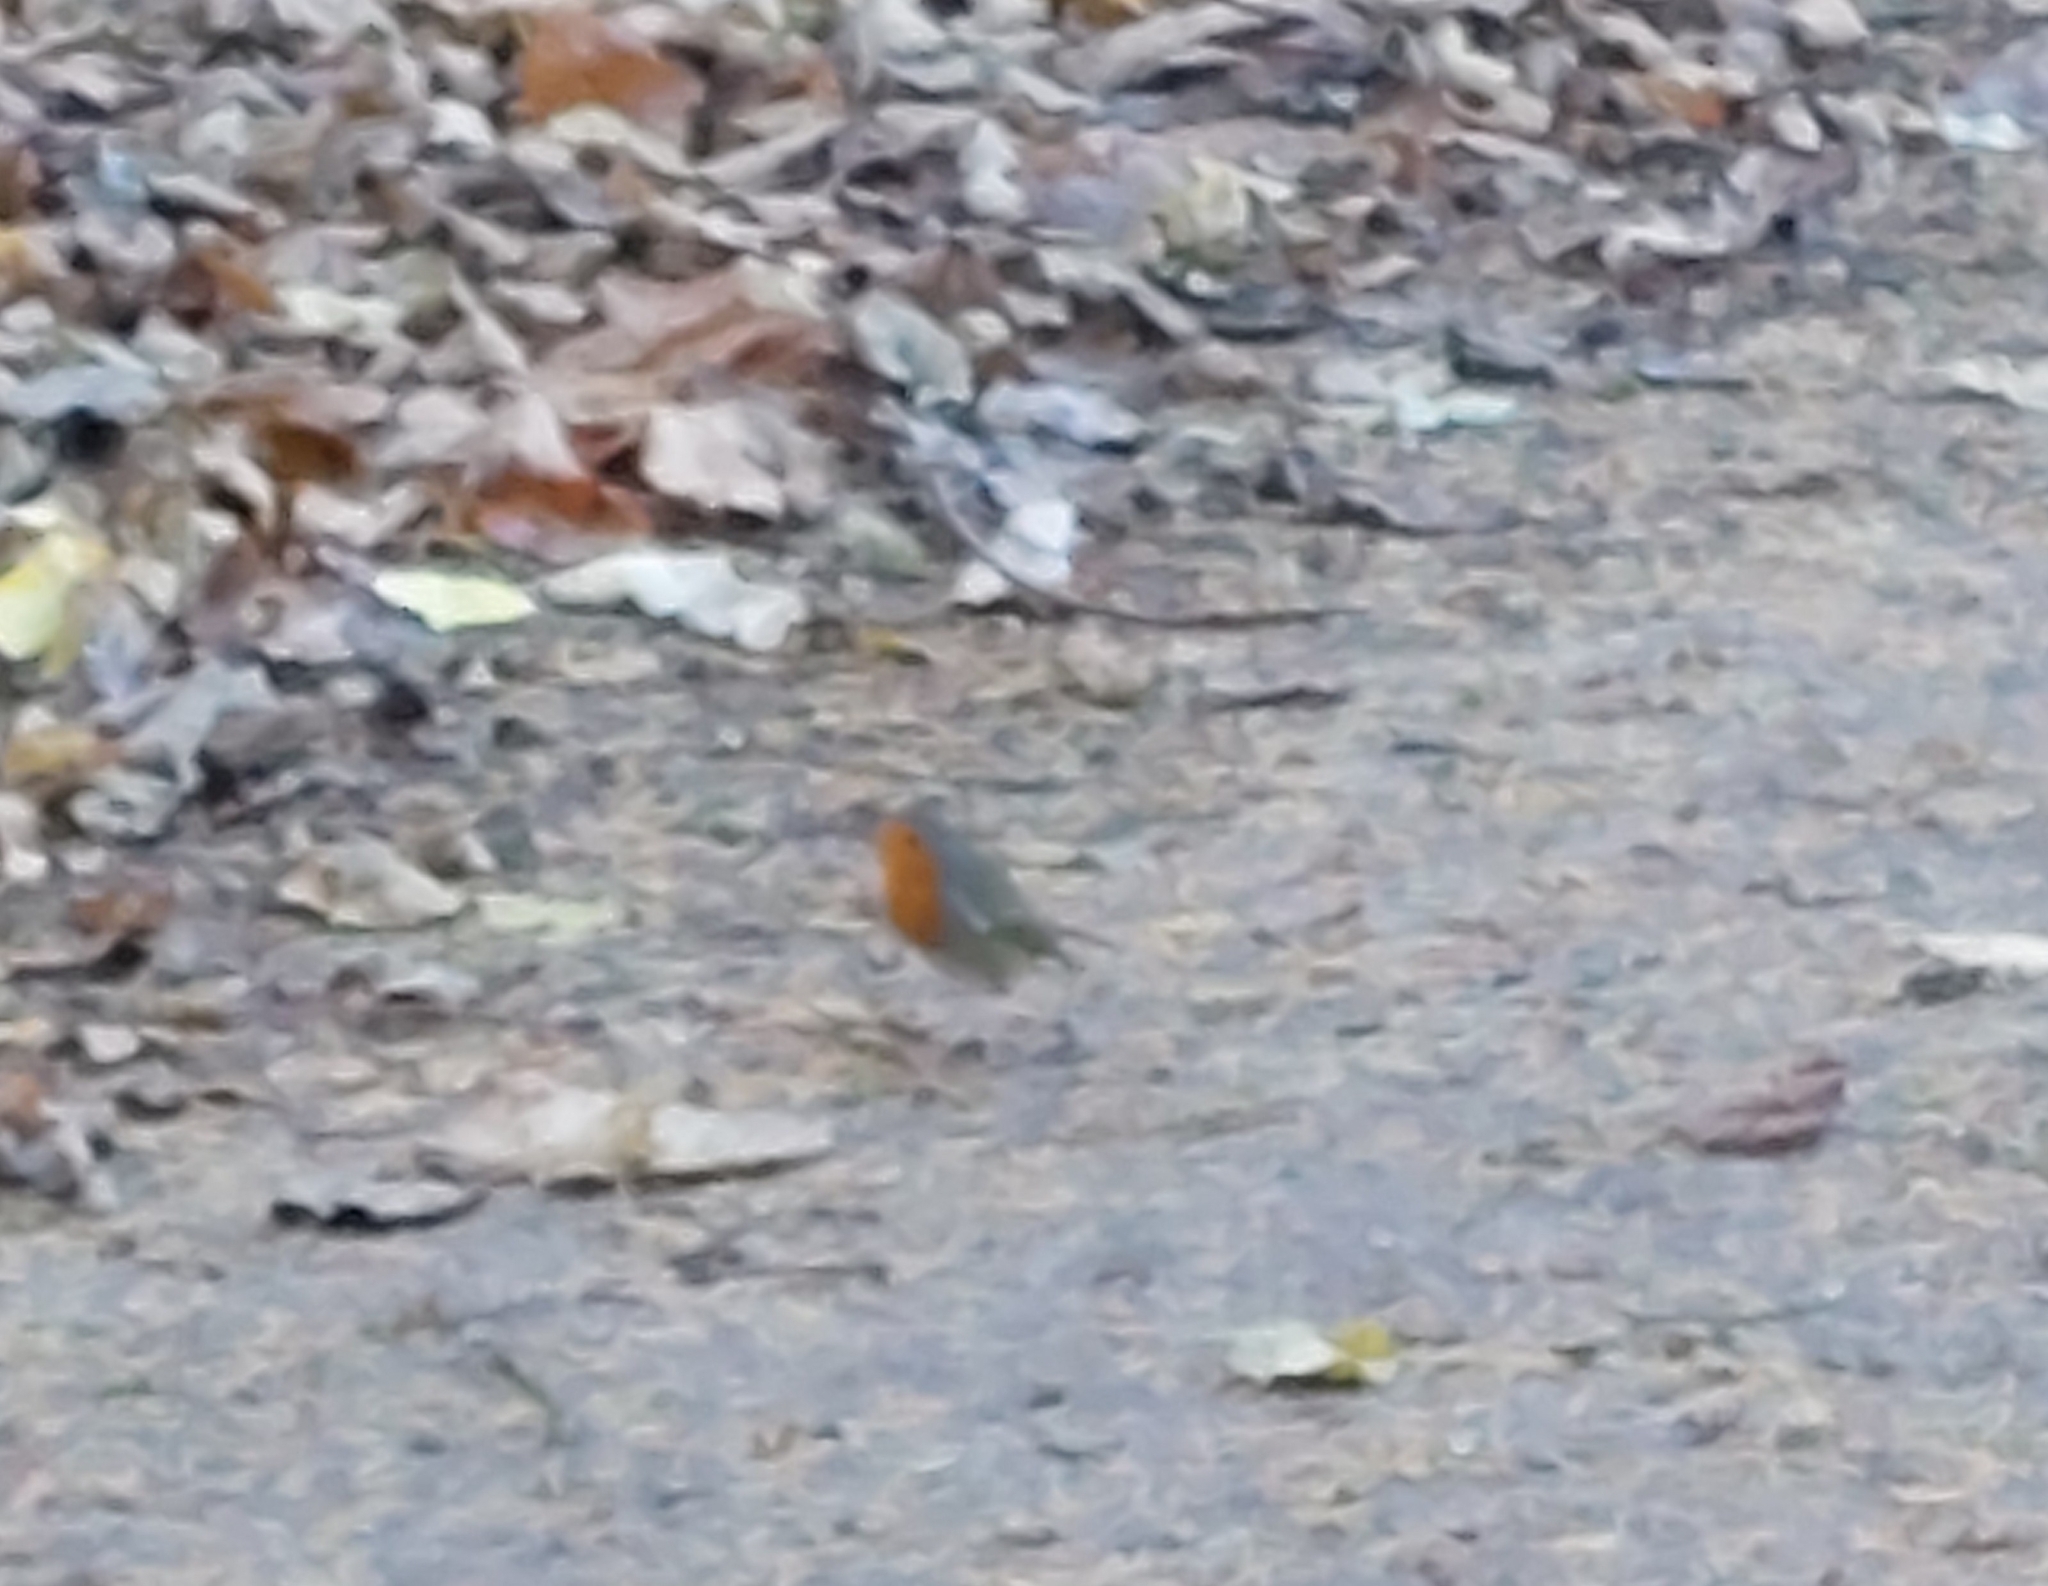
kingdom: Animalia
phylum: Chordata
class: Aves
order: Passeriformes
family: Muscicapidae
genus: Erithacus
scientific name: Erithacus rubecula
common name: European robin
